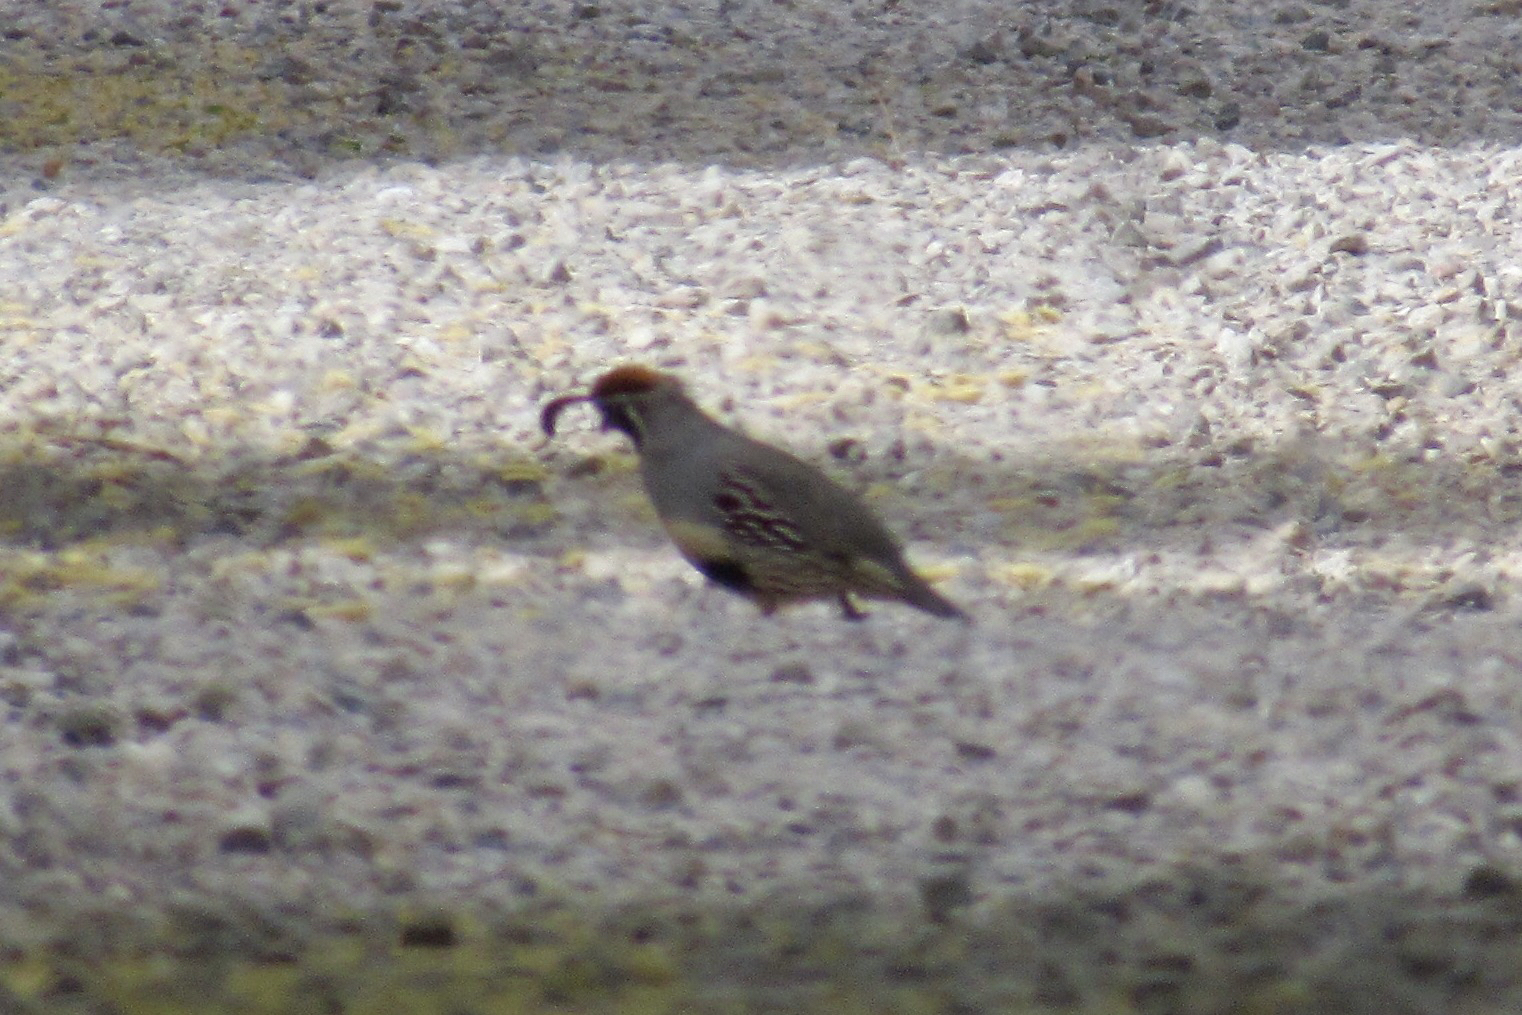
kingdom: Animalia
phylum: Chordata
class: Aves
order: Galliformes
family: Odontophoridae
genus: Callipepla
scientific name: Callipepla gambelii
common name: Gambel's quail
